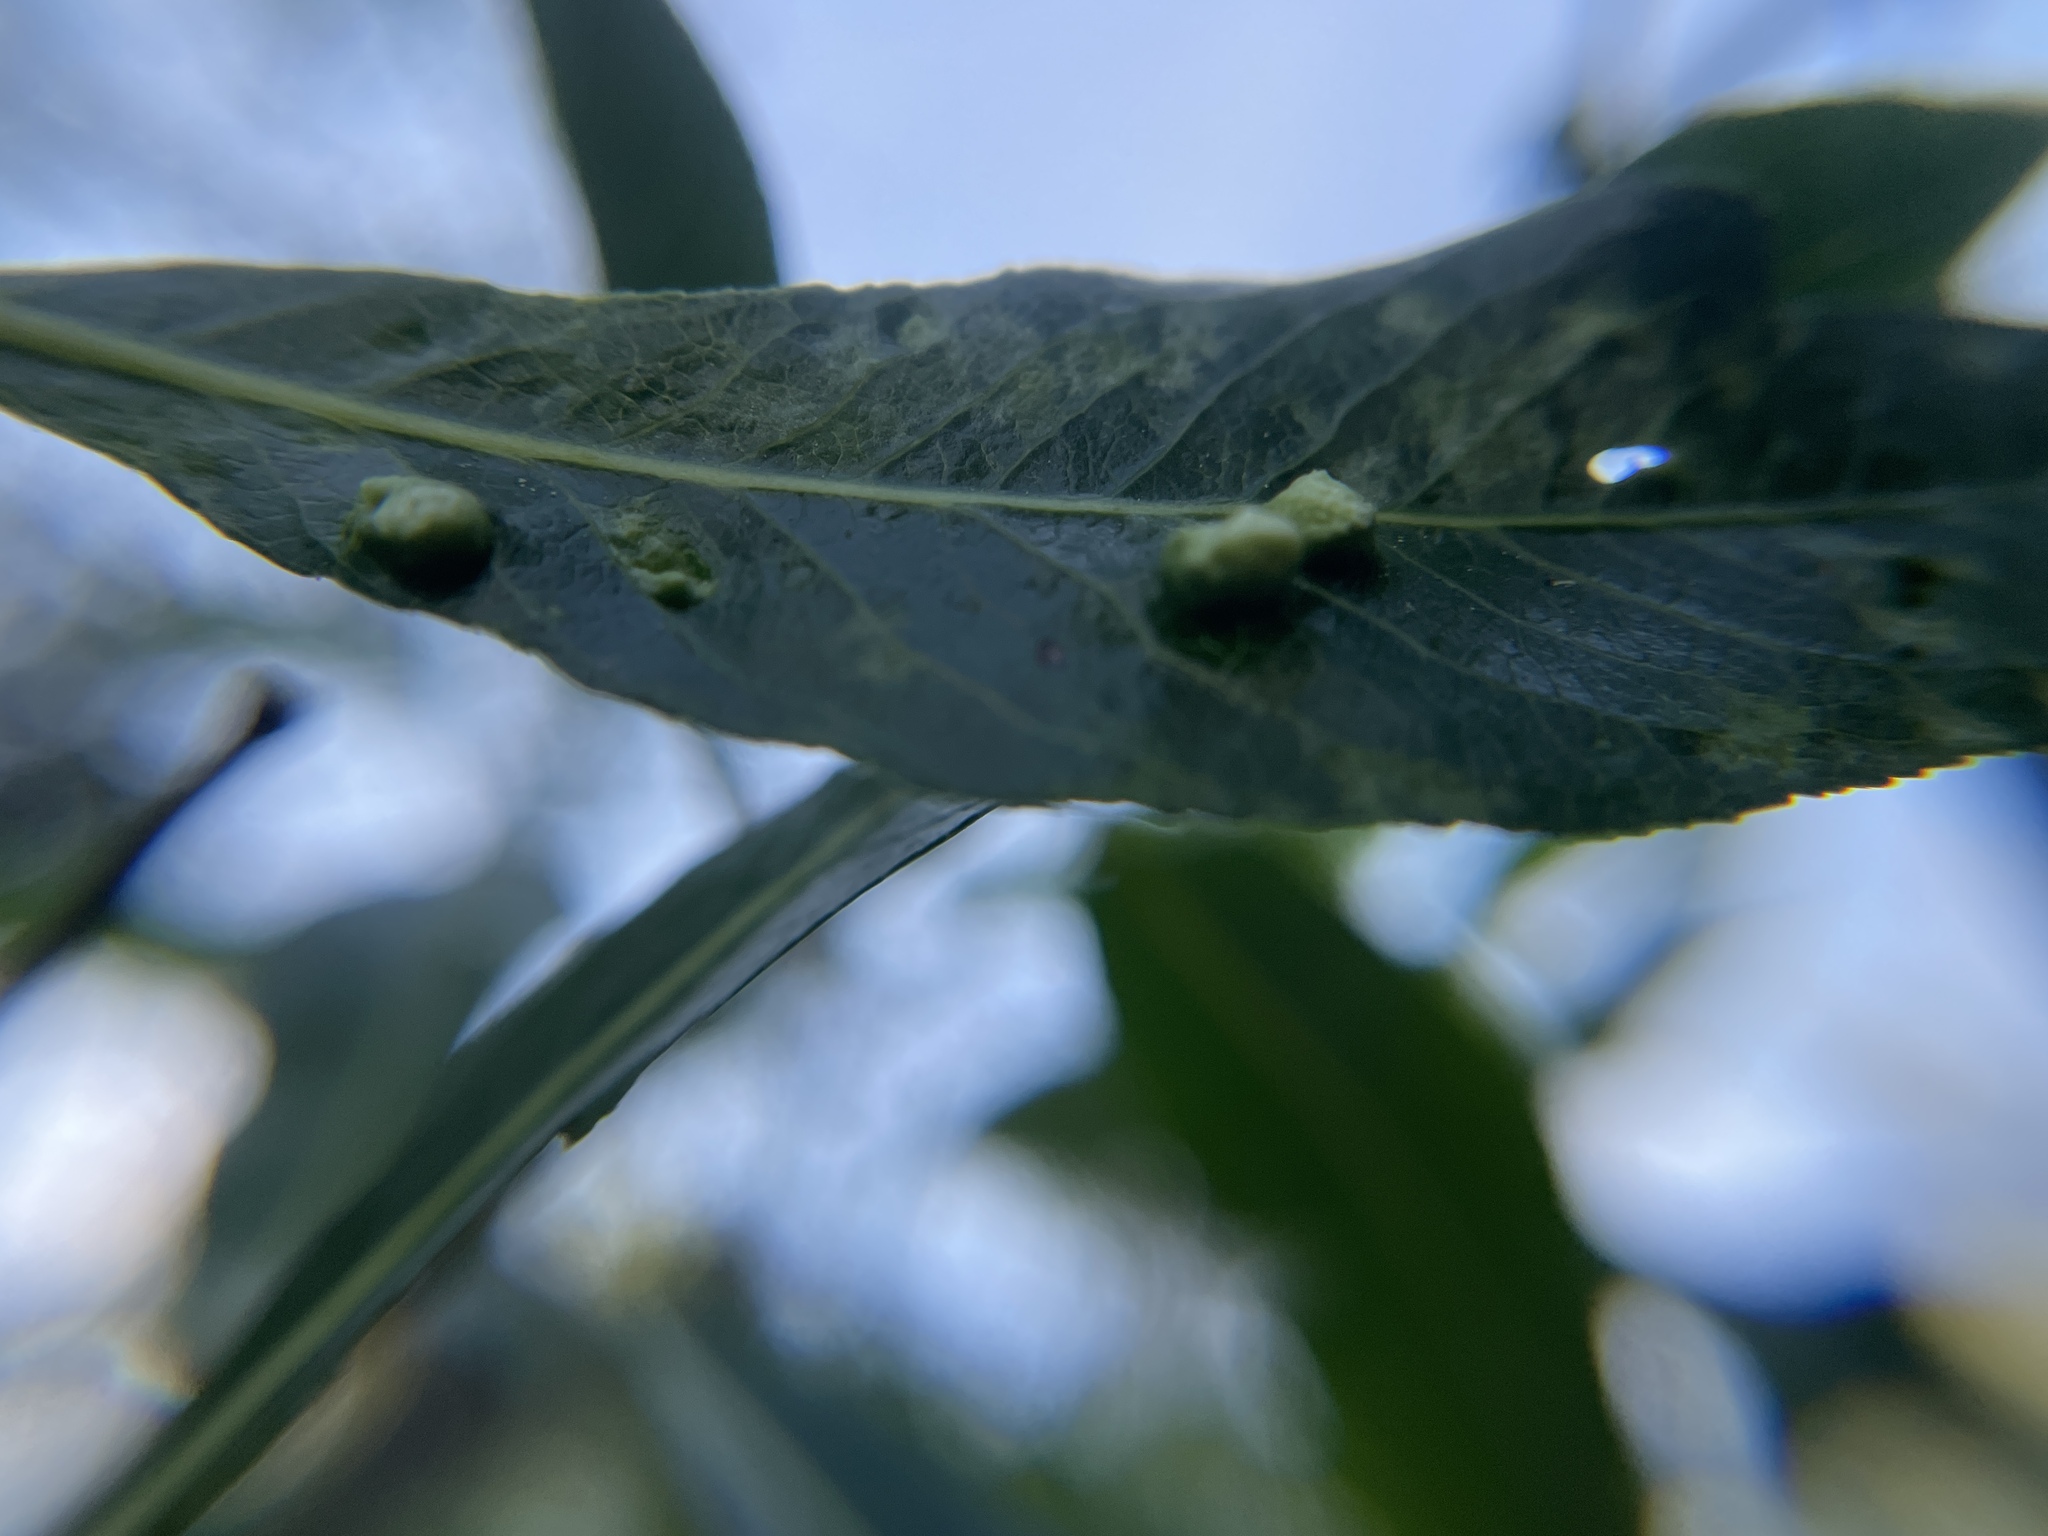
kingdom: Animalia
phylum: Arthropoda
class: Arachnida
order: Trombidiformes
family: Eriophyidae
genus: Aculus
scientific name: Aculus tetanothrix
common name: Willow bead gall mite
